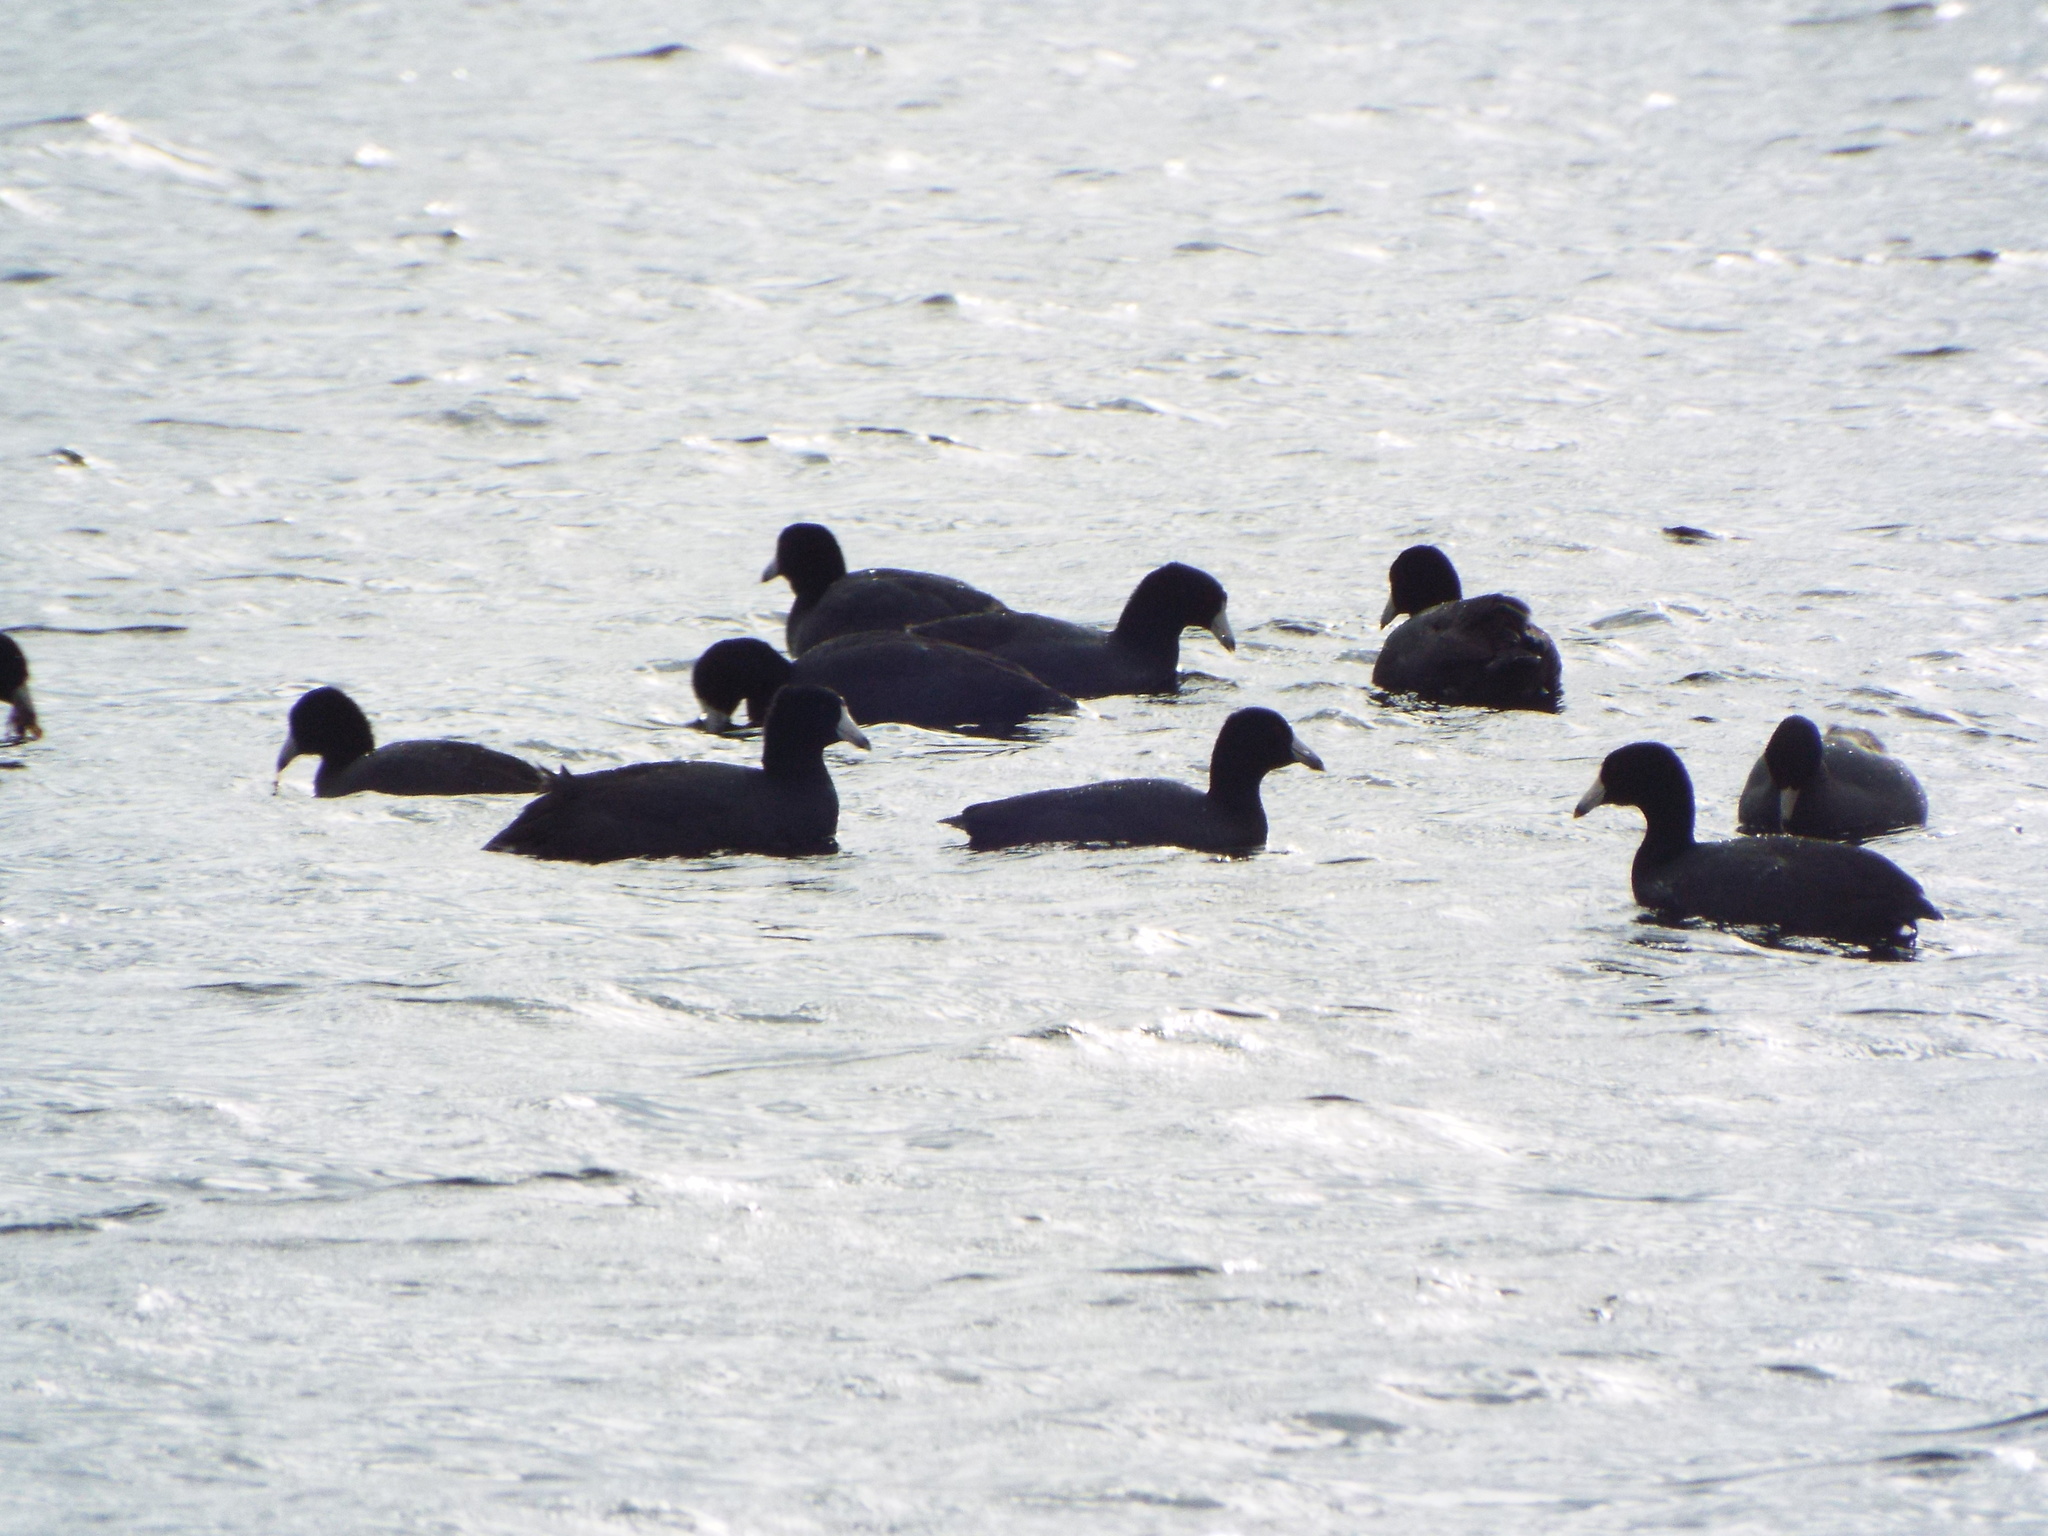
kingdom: Animalia
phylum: Chordata
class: Aves
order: Gruiformes
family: Rallidae
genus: Fulica
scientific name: Fulica americana
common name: American coot
